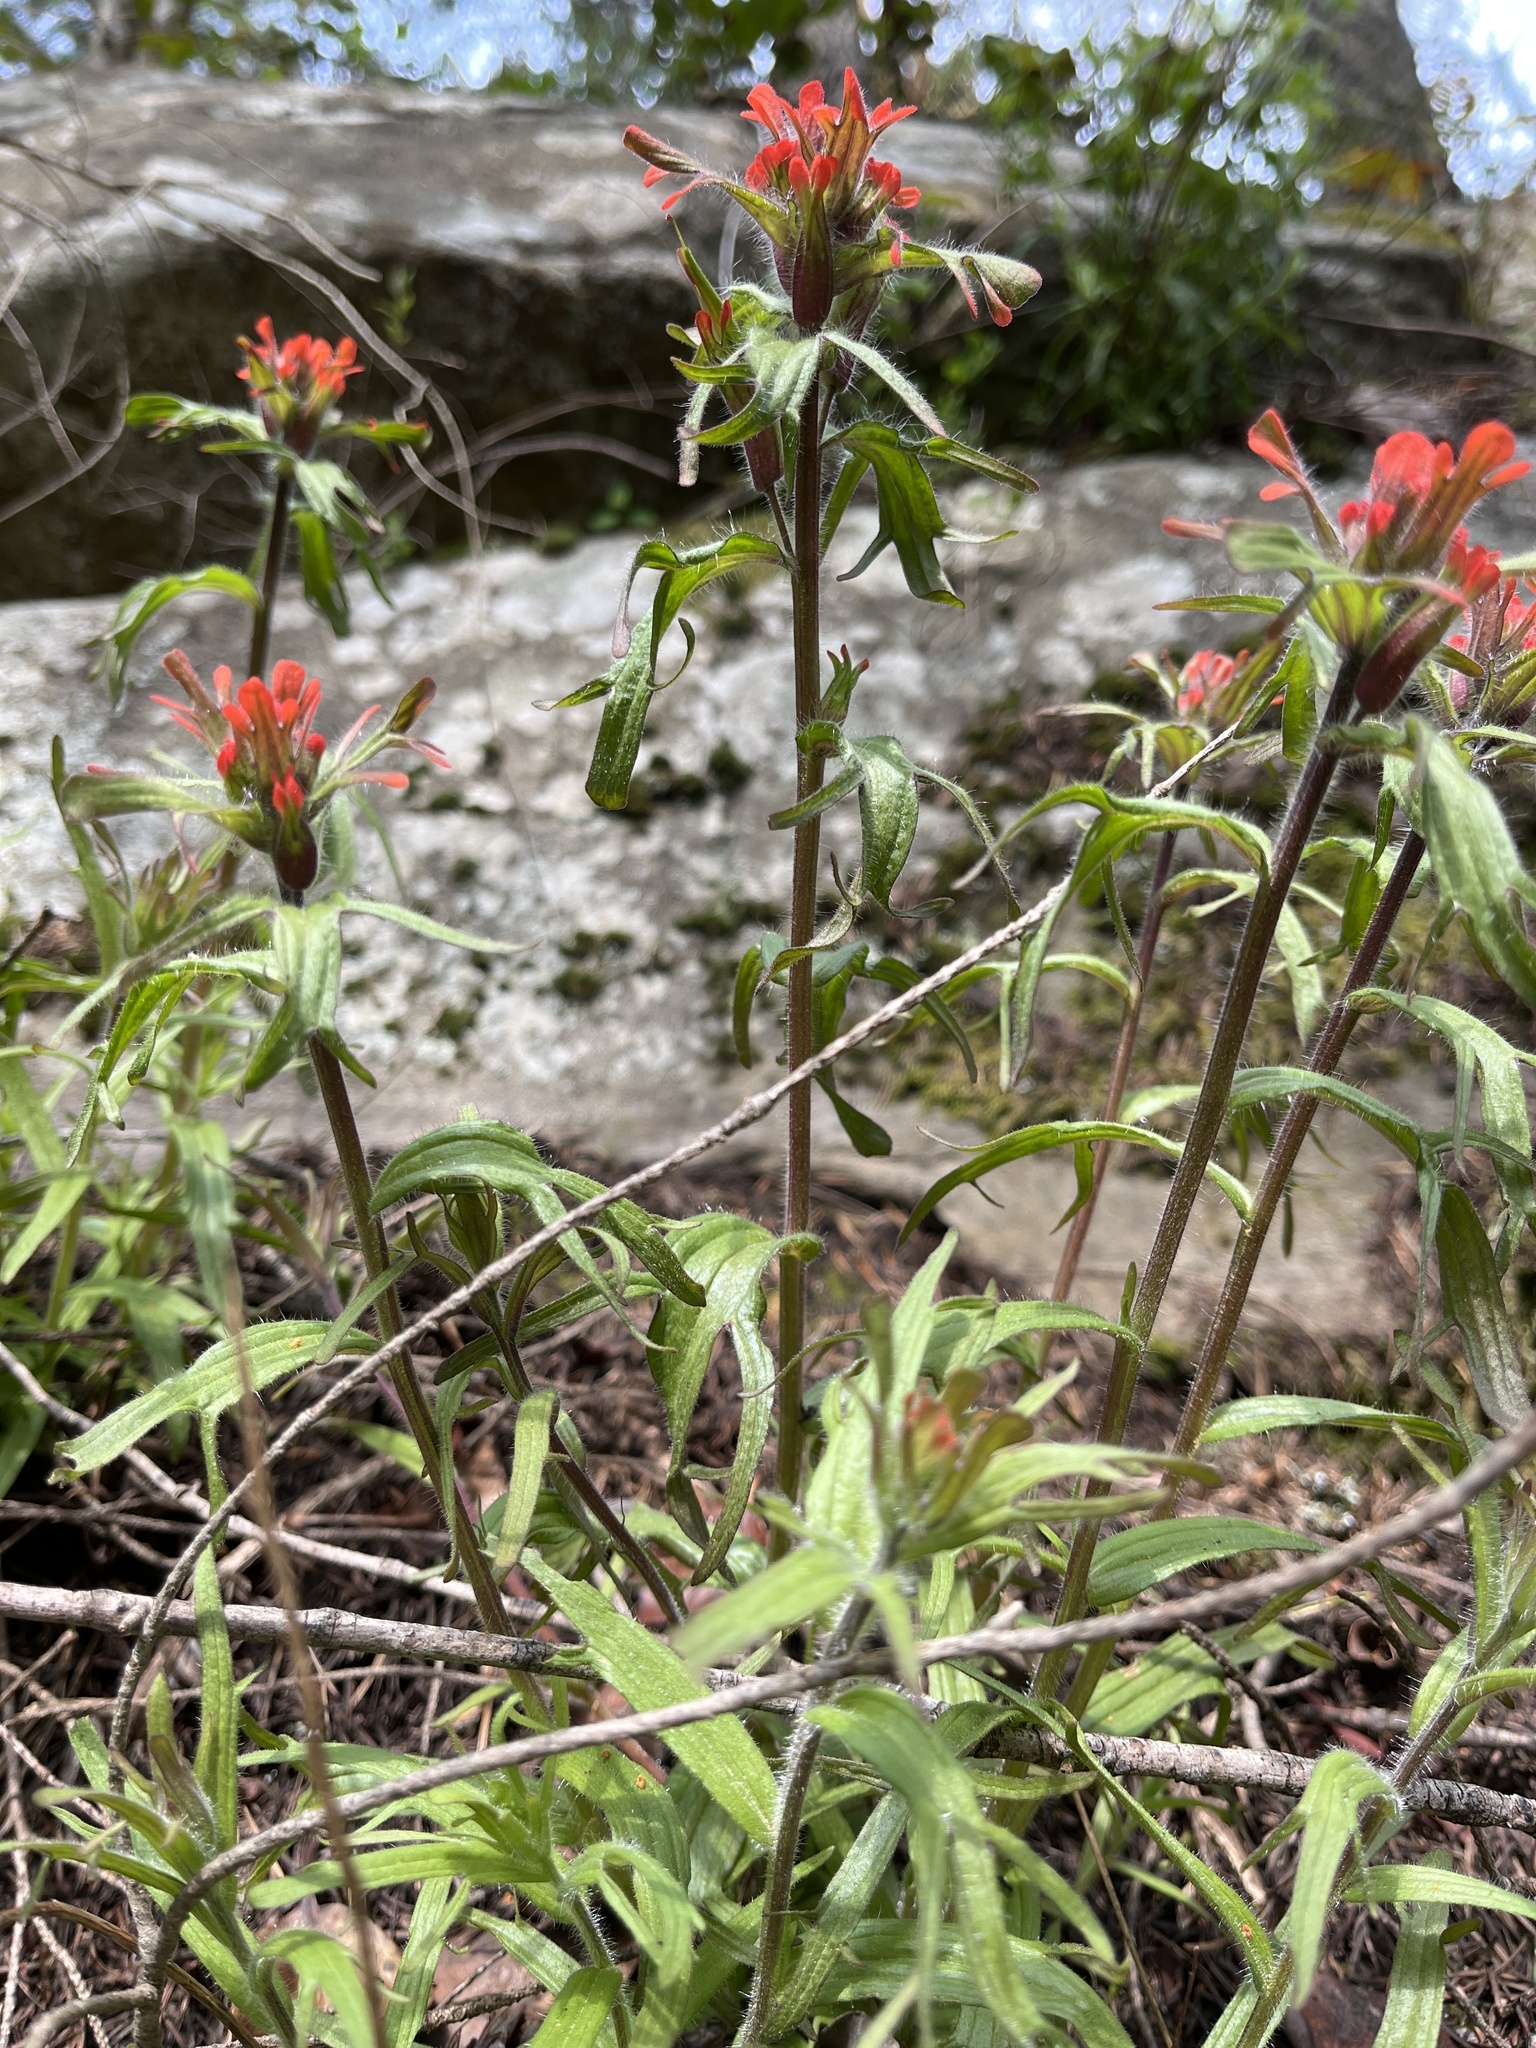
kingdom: Plantae
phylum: Tracheophyta
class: Magnoliopsida
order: Lamiales
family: Orobanchaceae
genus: Castilleja
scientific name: Castilleja hispida
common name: Bristly paintbrush
